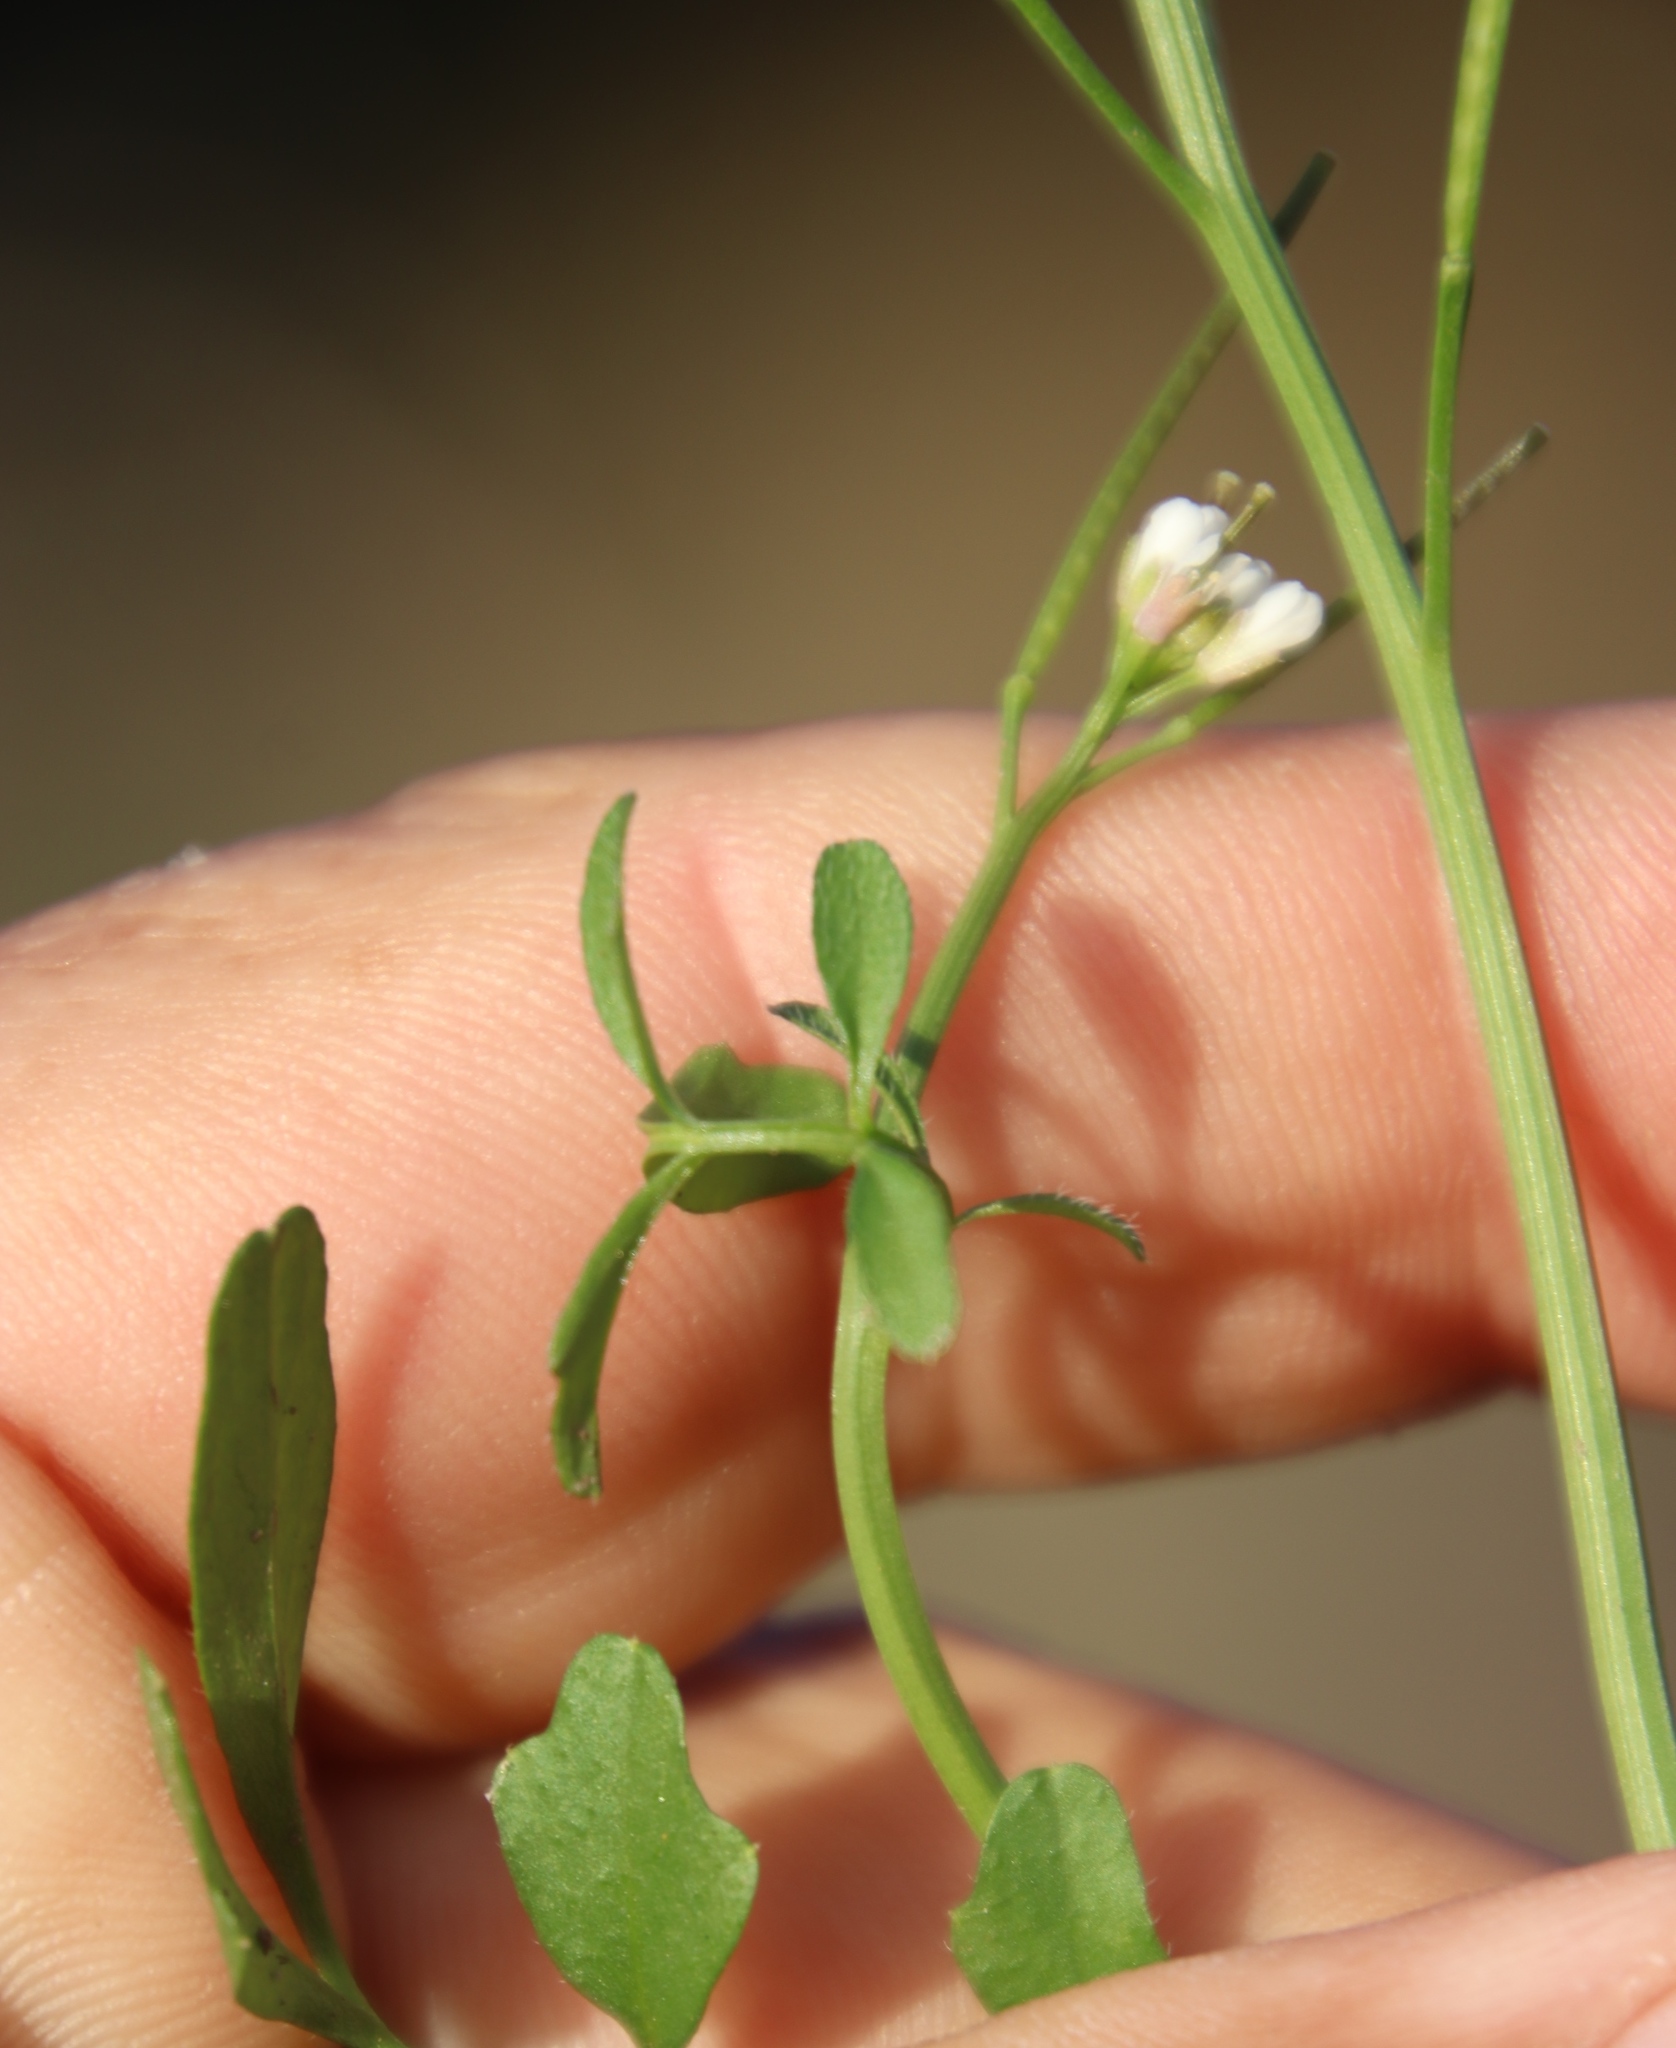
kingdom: Plantae
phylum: Tracheophyta
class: Magnoliopsida
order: Brassicales
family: Brassicaceae
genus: Cardamine
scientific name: Cardamine hirsuta
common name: Hairy bittercress
